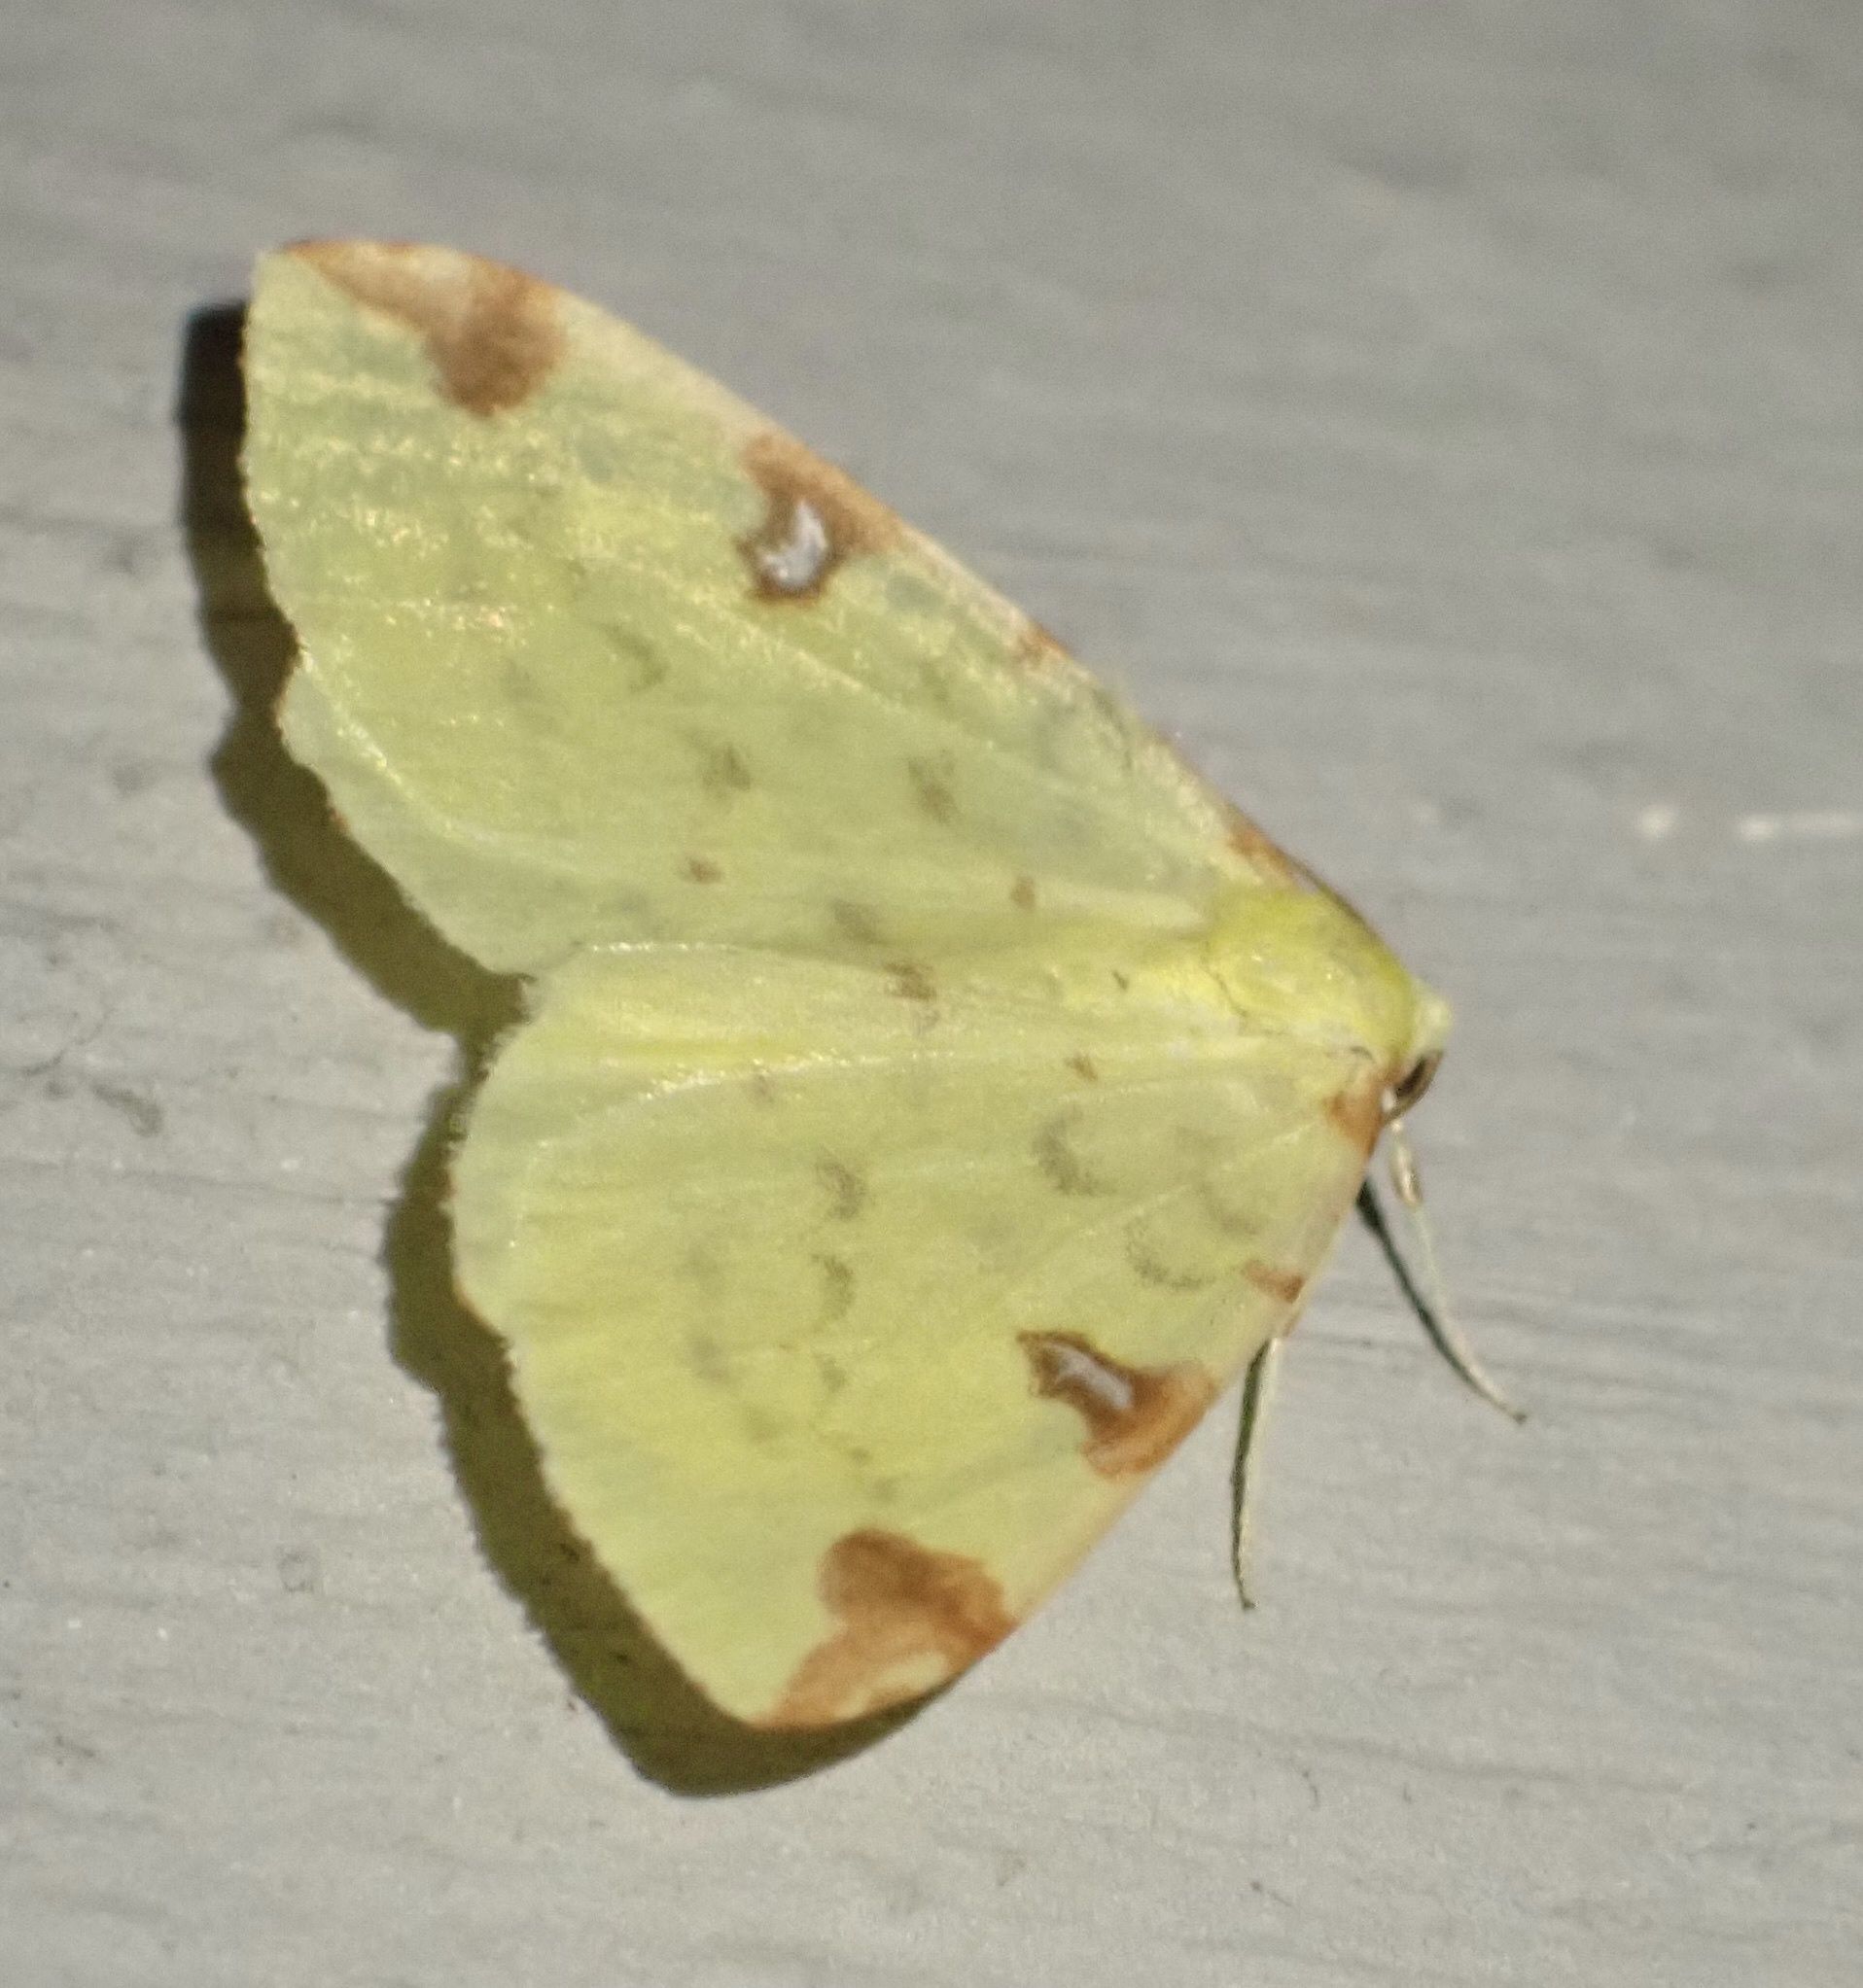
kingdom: Animalia
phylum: Arthropoda
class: Insecta
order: Lepidoptera
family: Geometridae
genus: Opisthograptis
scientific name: Opisthograptis luteolata
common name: Brimstone moth
